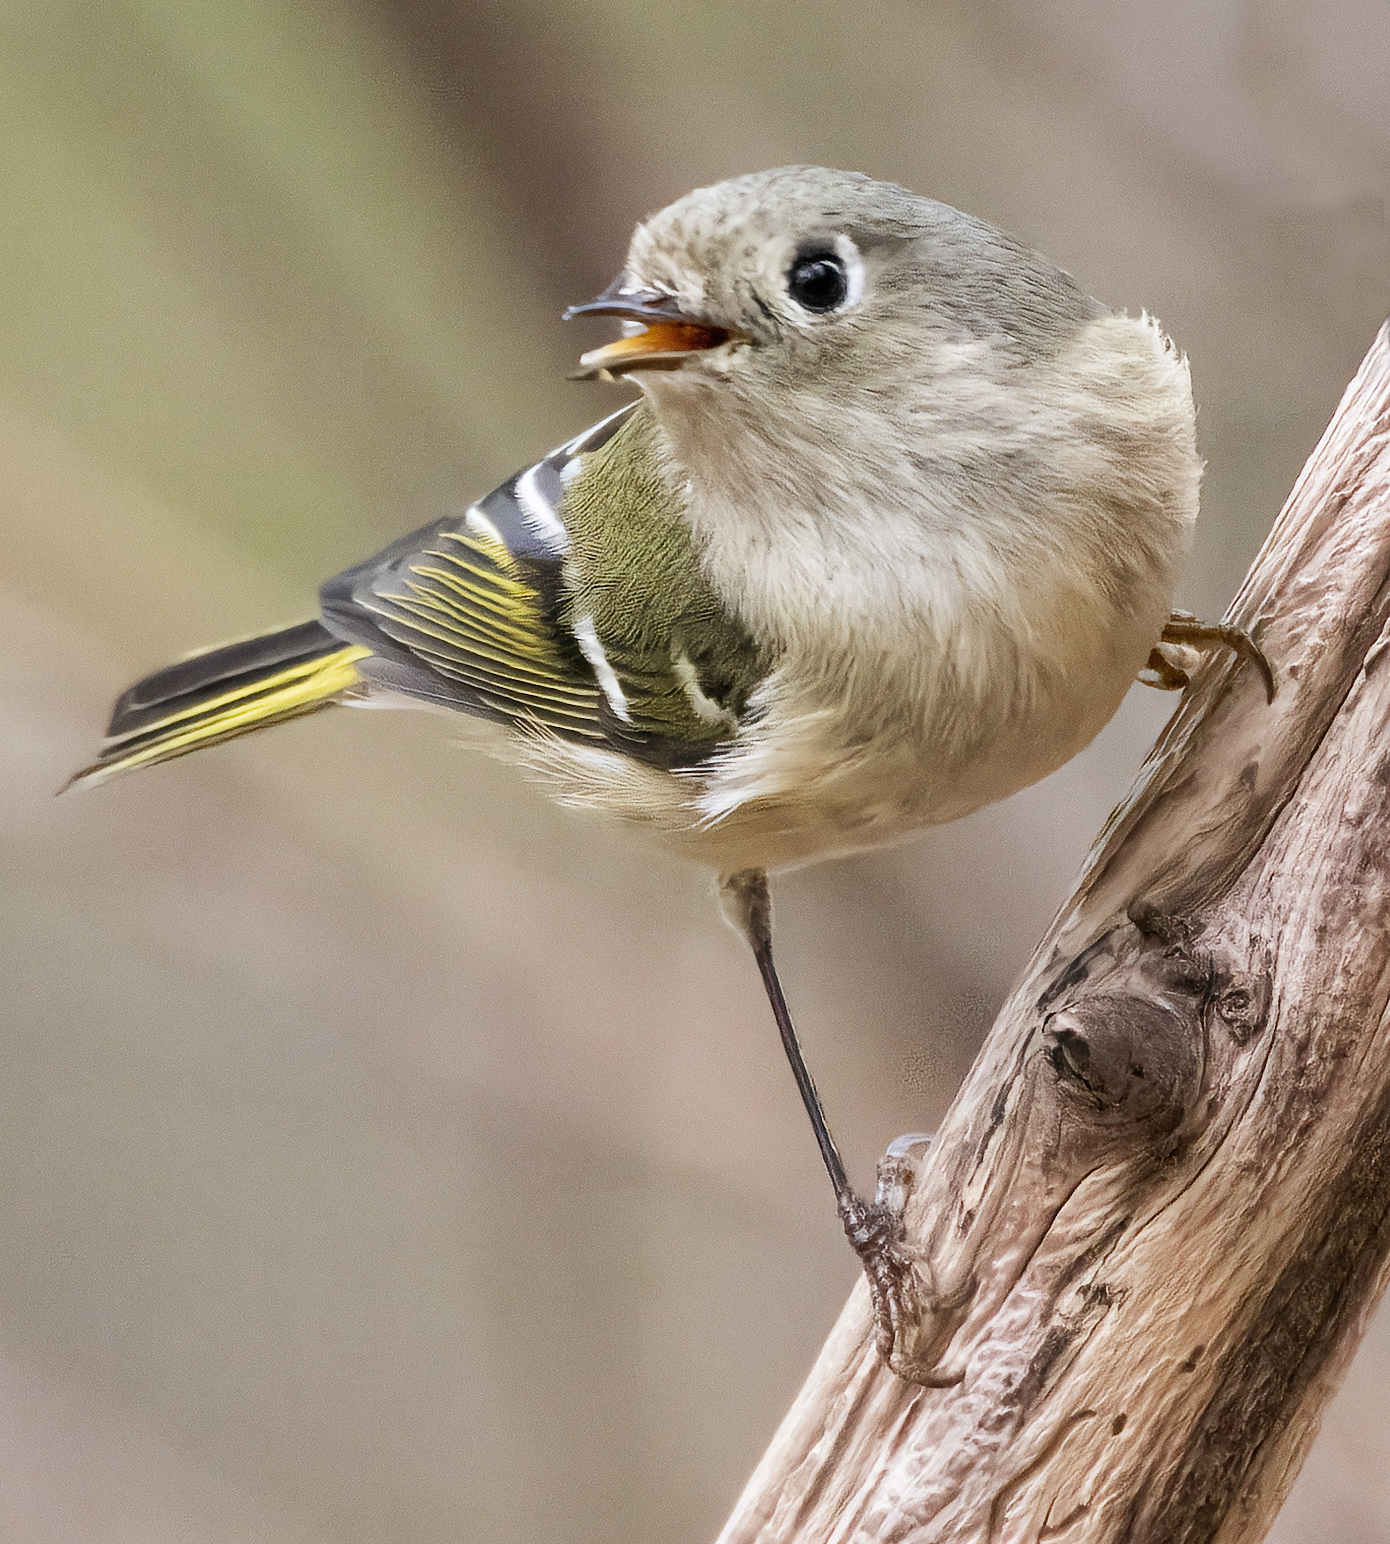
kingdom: Animalia
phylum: Chordata
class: Aves
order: Passeriformes
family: Regulidae
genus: Regulus
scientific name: Regulus calendula
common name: Ruby-crowned kinglet
